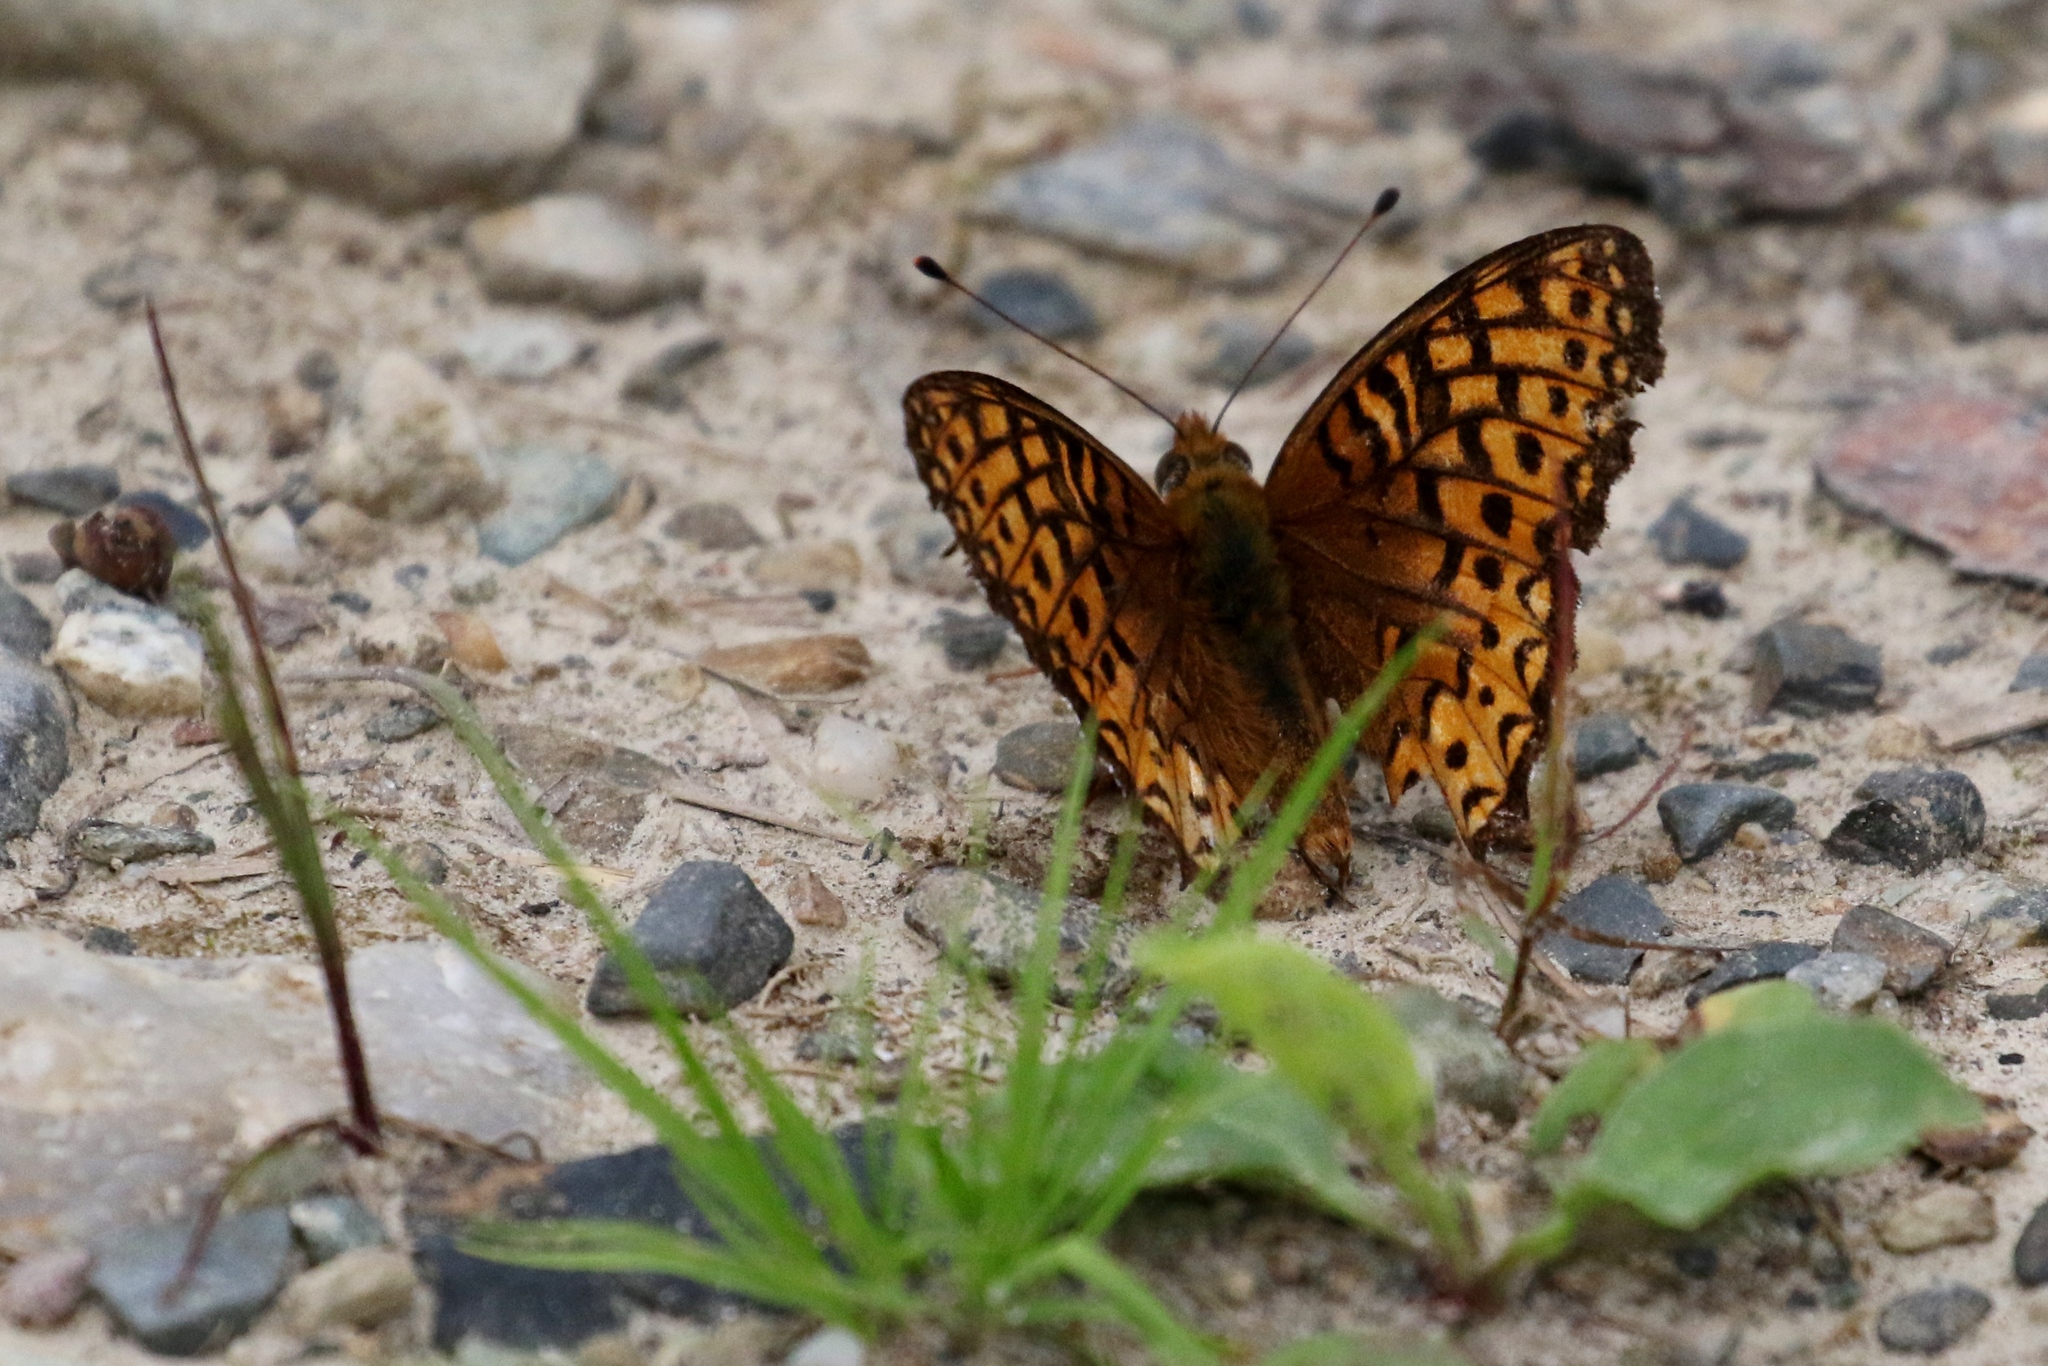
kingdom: Animalia
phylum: Arthropoda
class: Insecta
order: Lepidoptera
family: Nymphalidae
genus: Speyeria
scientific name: Speyeria atlantis
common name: Atlantis fritillary
